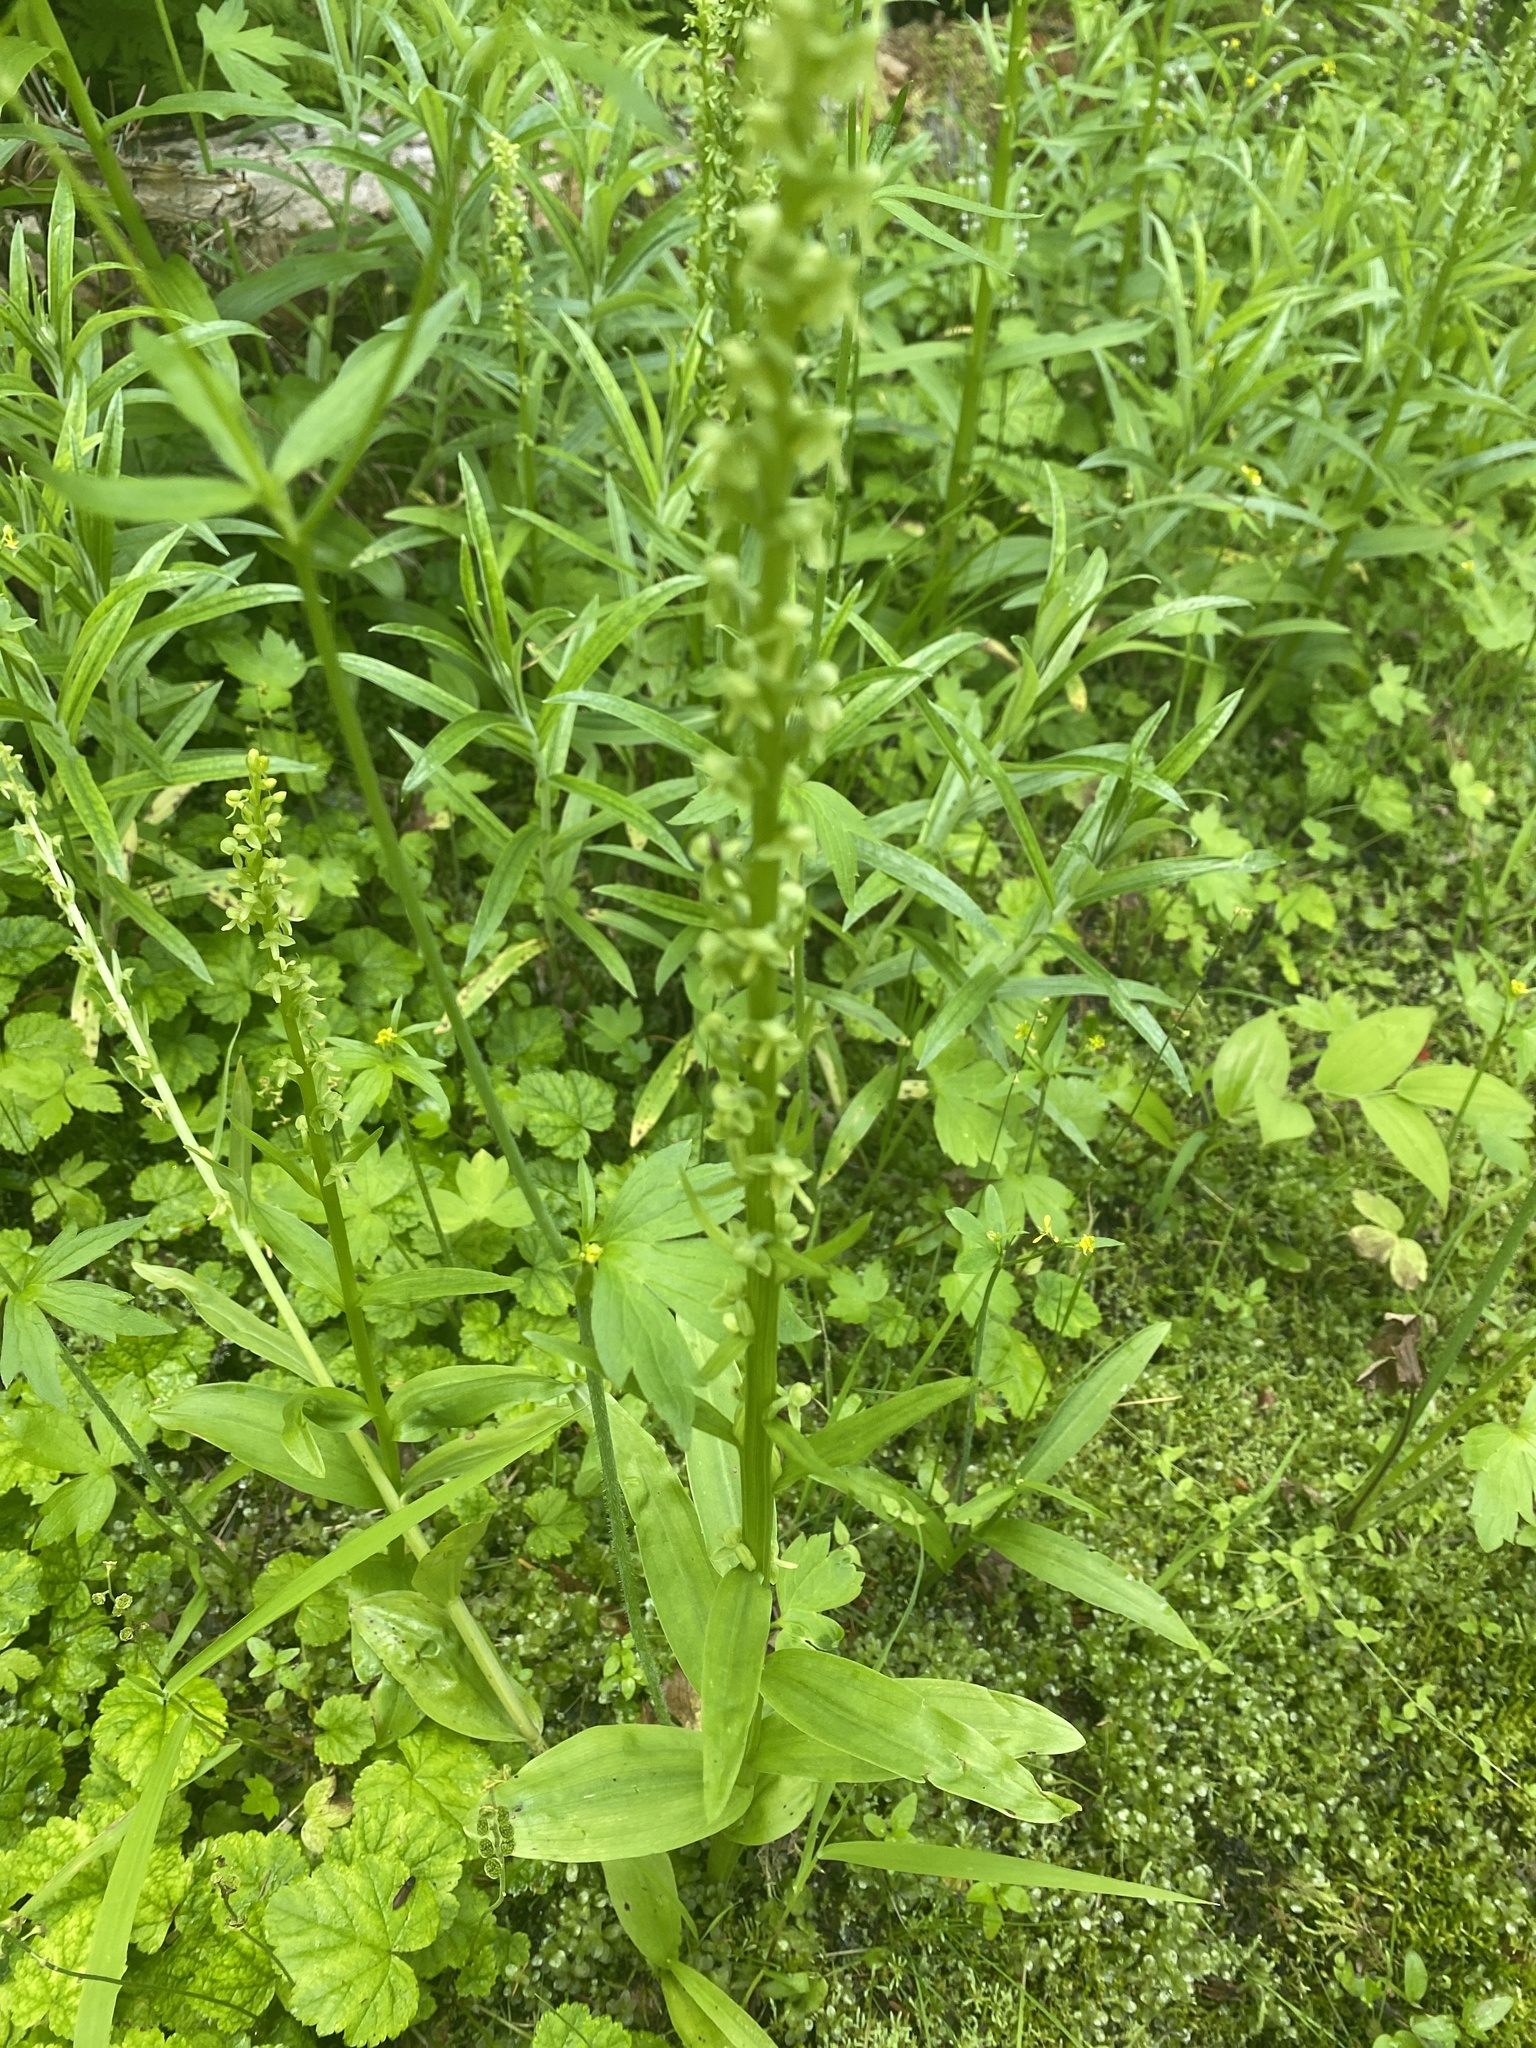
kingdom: Plantae
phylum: Tracheophyta
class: Liliopsida
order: Asparagales
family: Orchidaceae
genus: Platanthera
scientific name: Platanthera stricta
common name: Slender bog orchid
